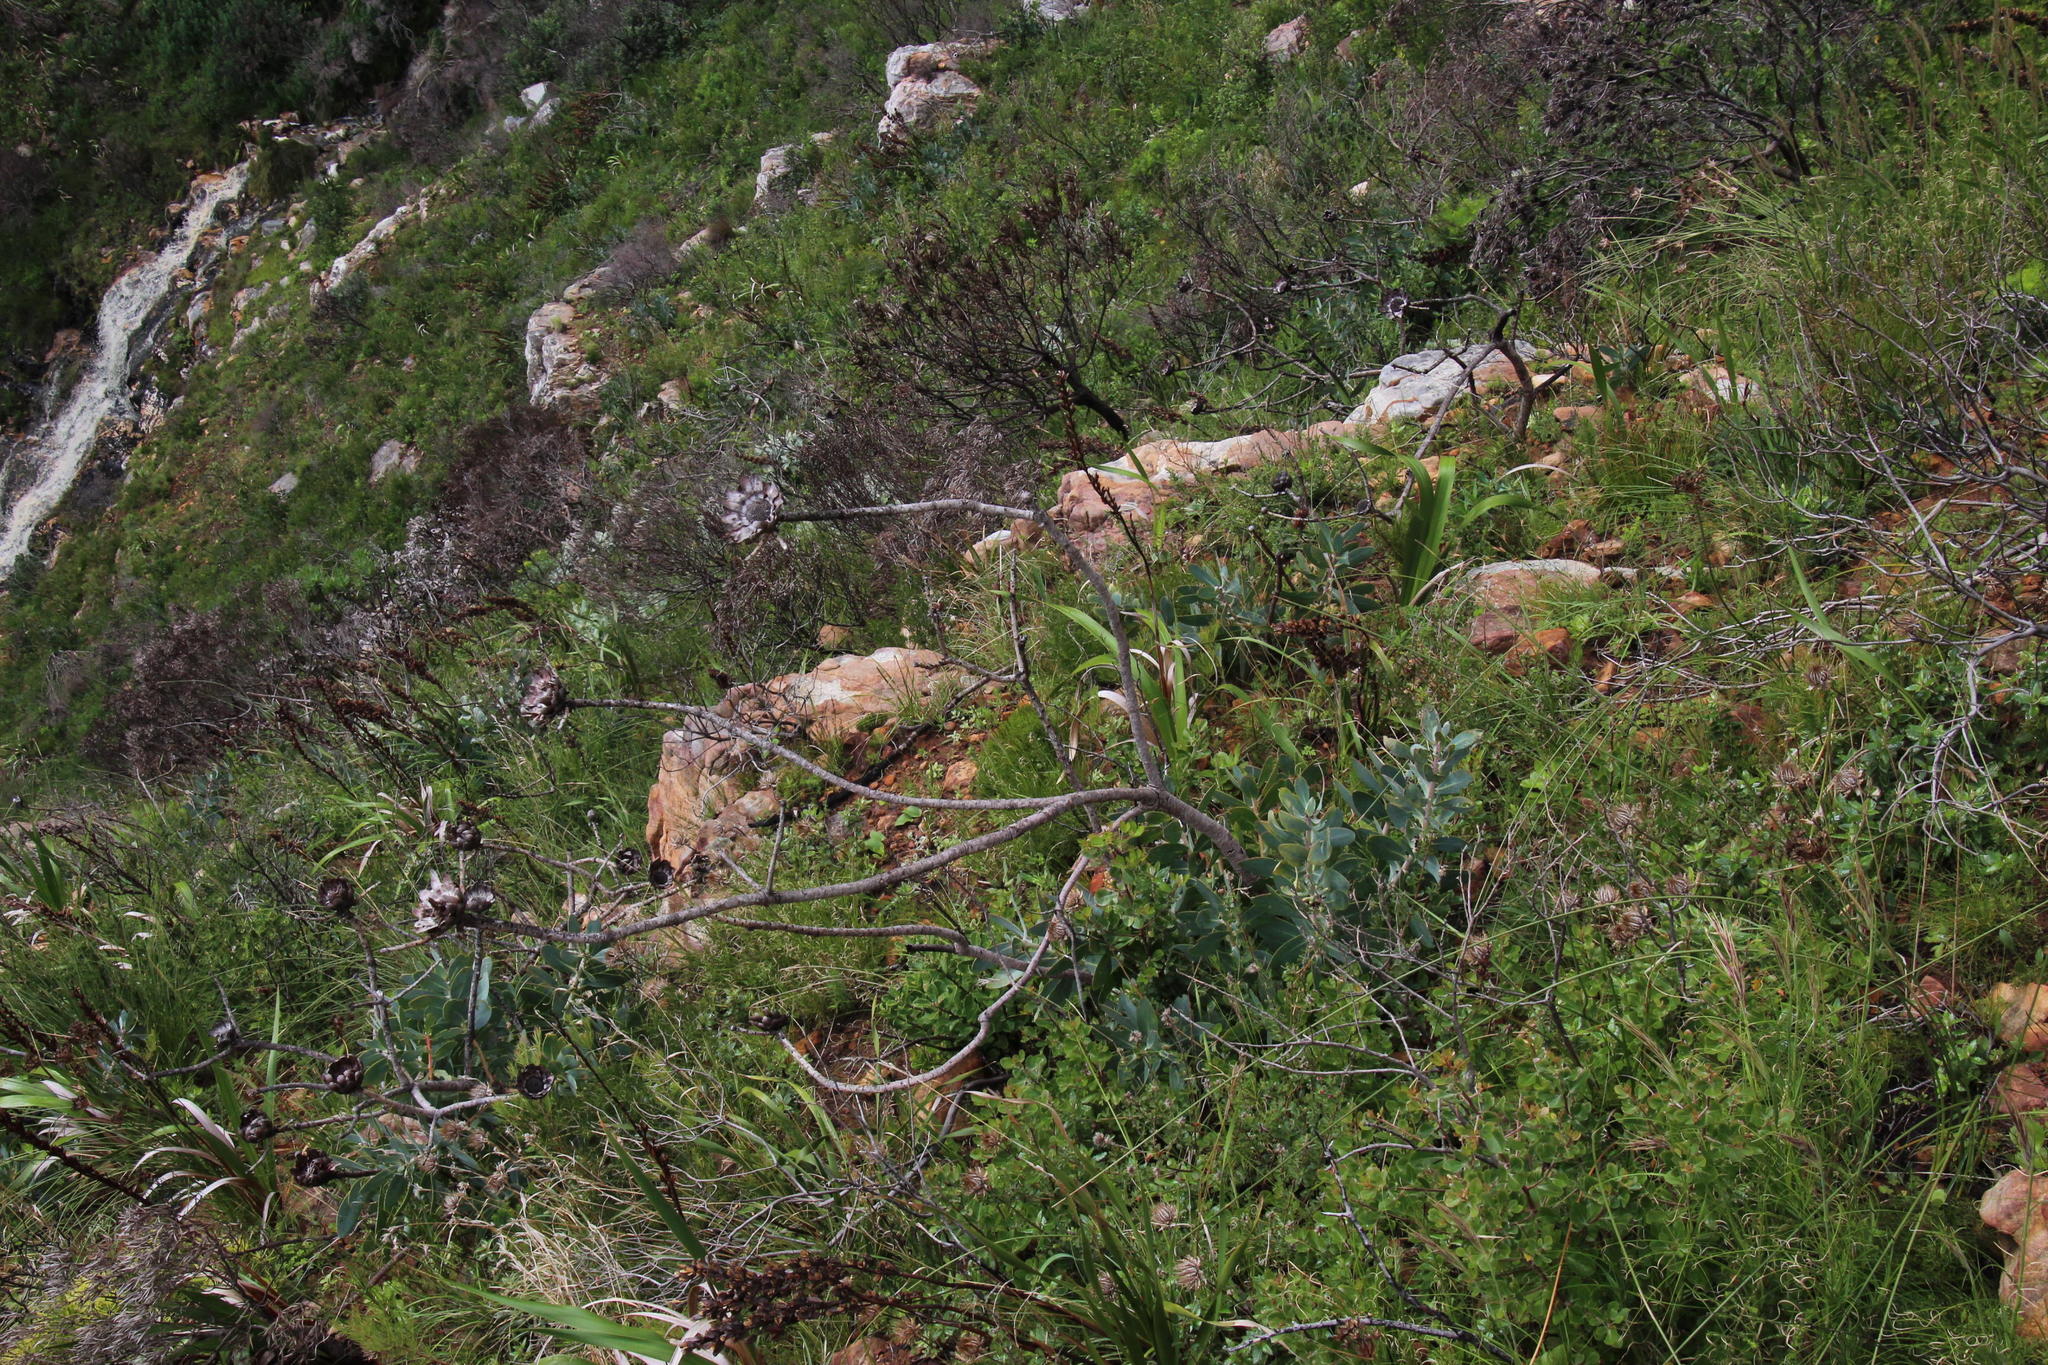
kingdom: Plantae
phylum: Tracheophyta
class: Magnoliopsida
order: Proteales
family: Proteaceae
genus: Protea
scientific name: Protea nitida
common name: Tree protea
